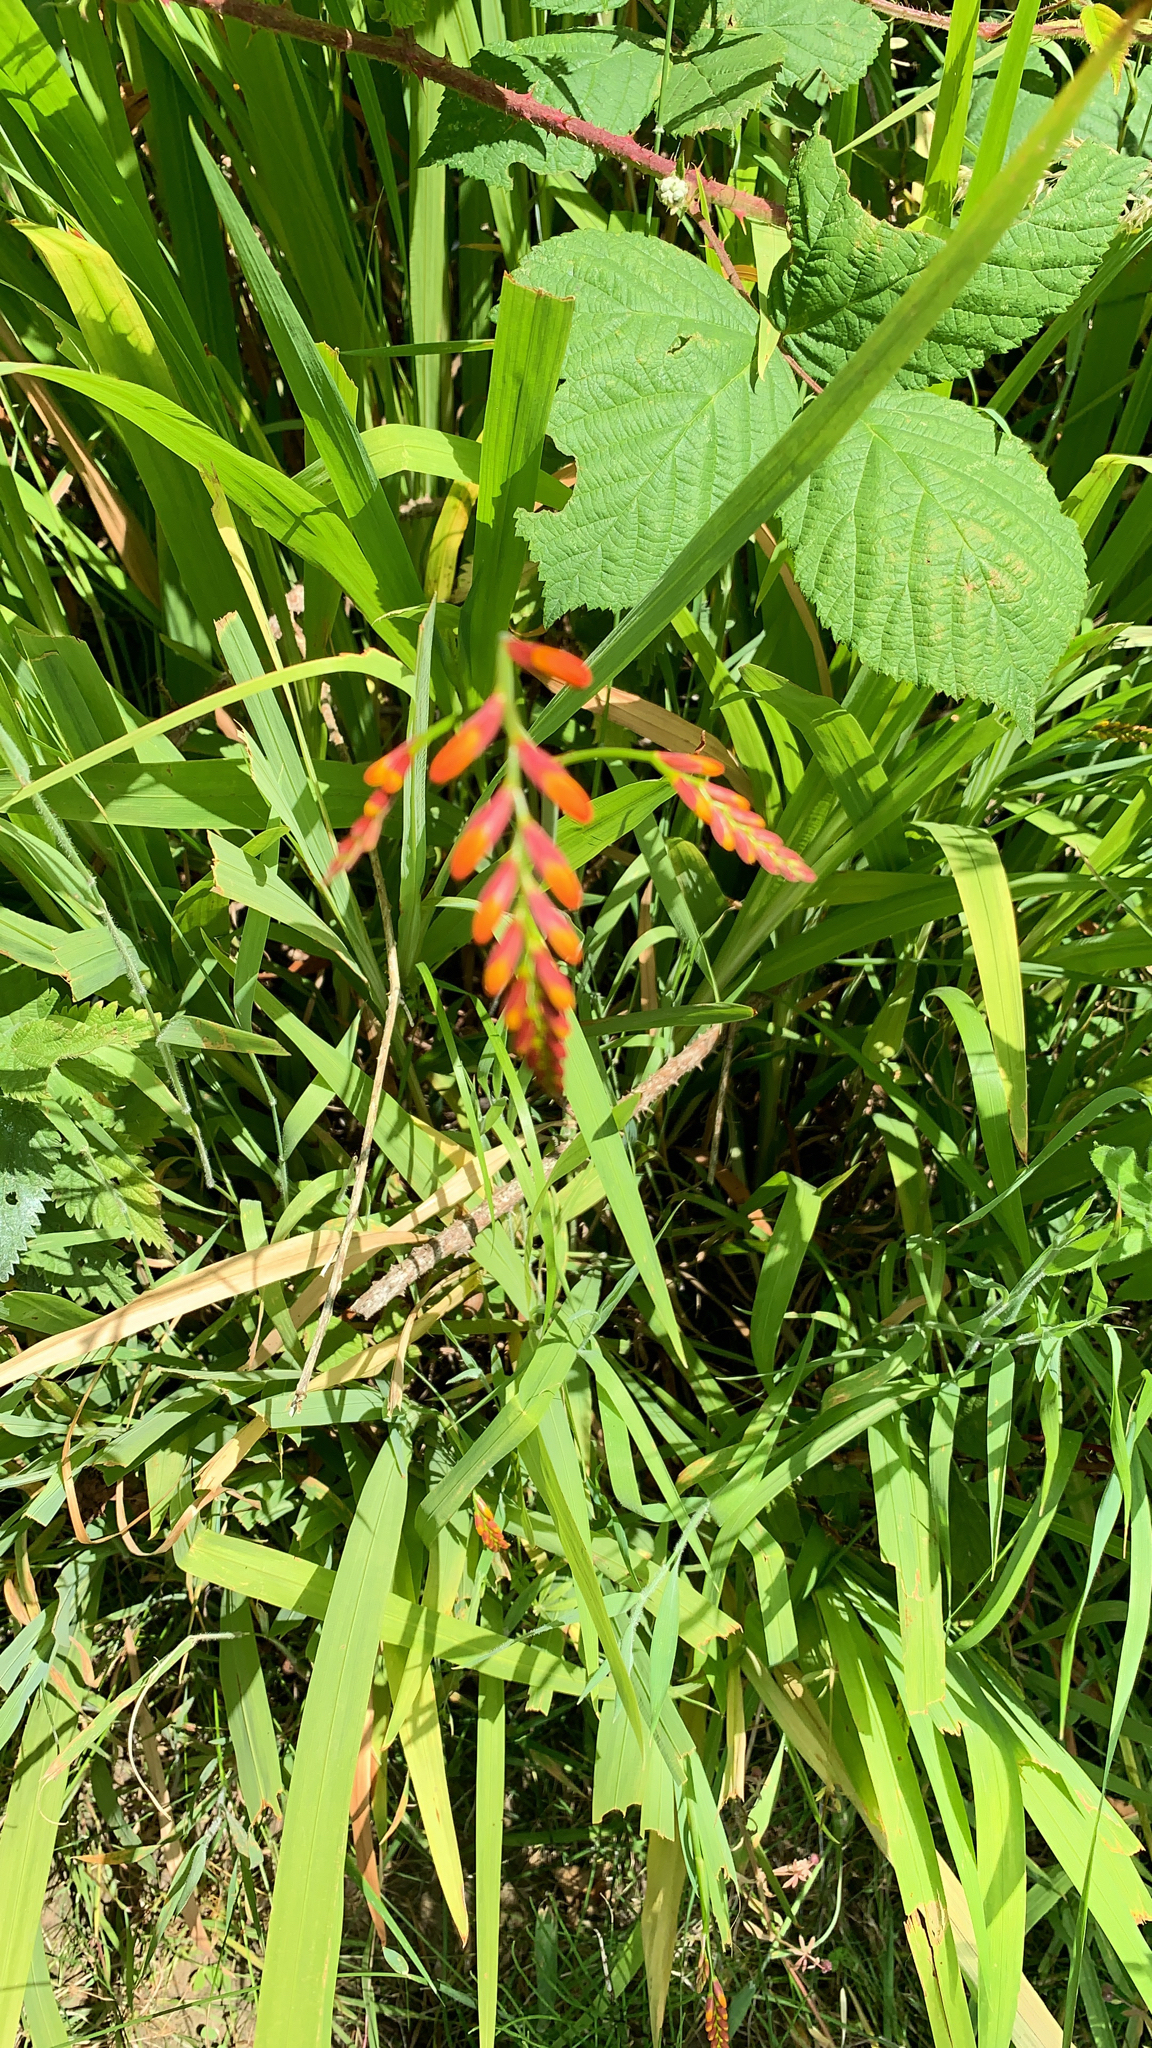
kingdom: Plantae
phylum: Tracheophyta
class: Liliopsida
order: Asparagales
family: Iridaceae
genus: Crocosmia
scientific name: Crocosmia crocosmiiflora
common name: Montbretia
